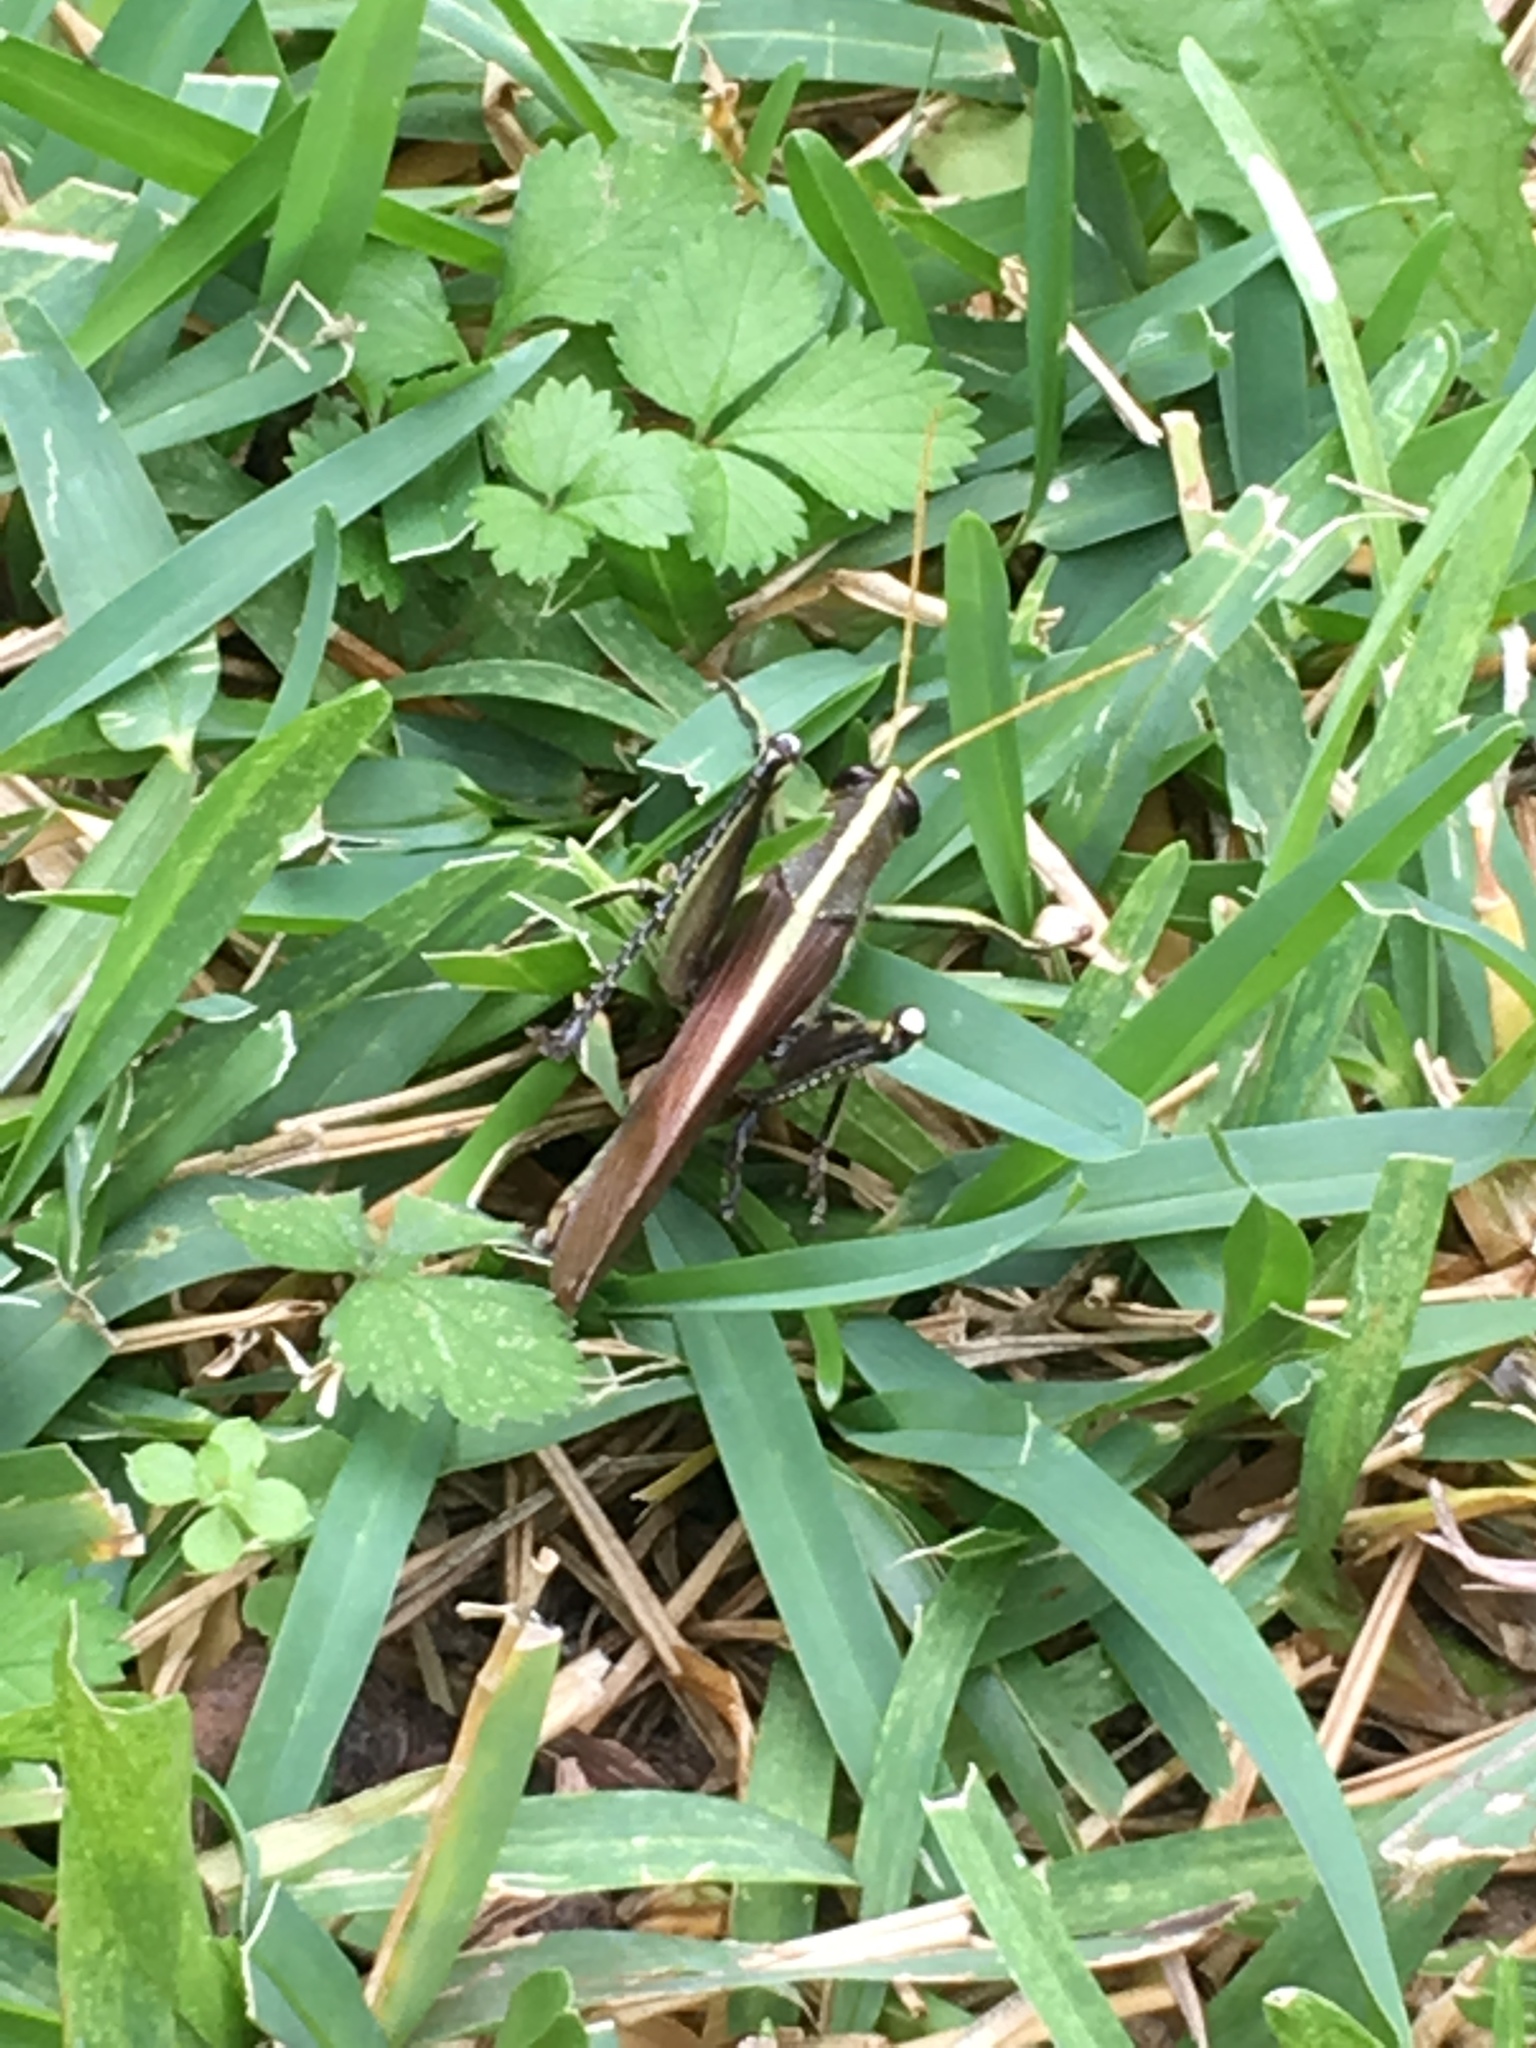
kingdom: Animalia
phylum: Arthropoda
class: Insecta
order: Orthoptera
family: Acrididae
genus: Schistocerca
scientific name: Schistocerca obscura
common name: Obscure bird grasshopper
